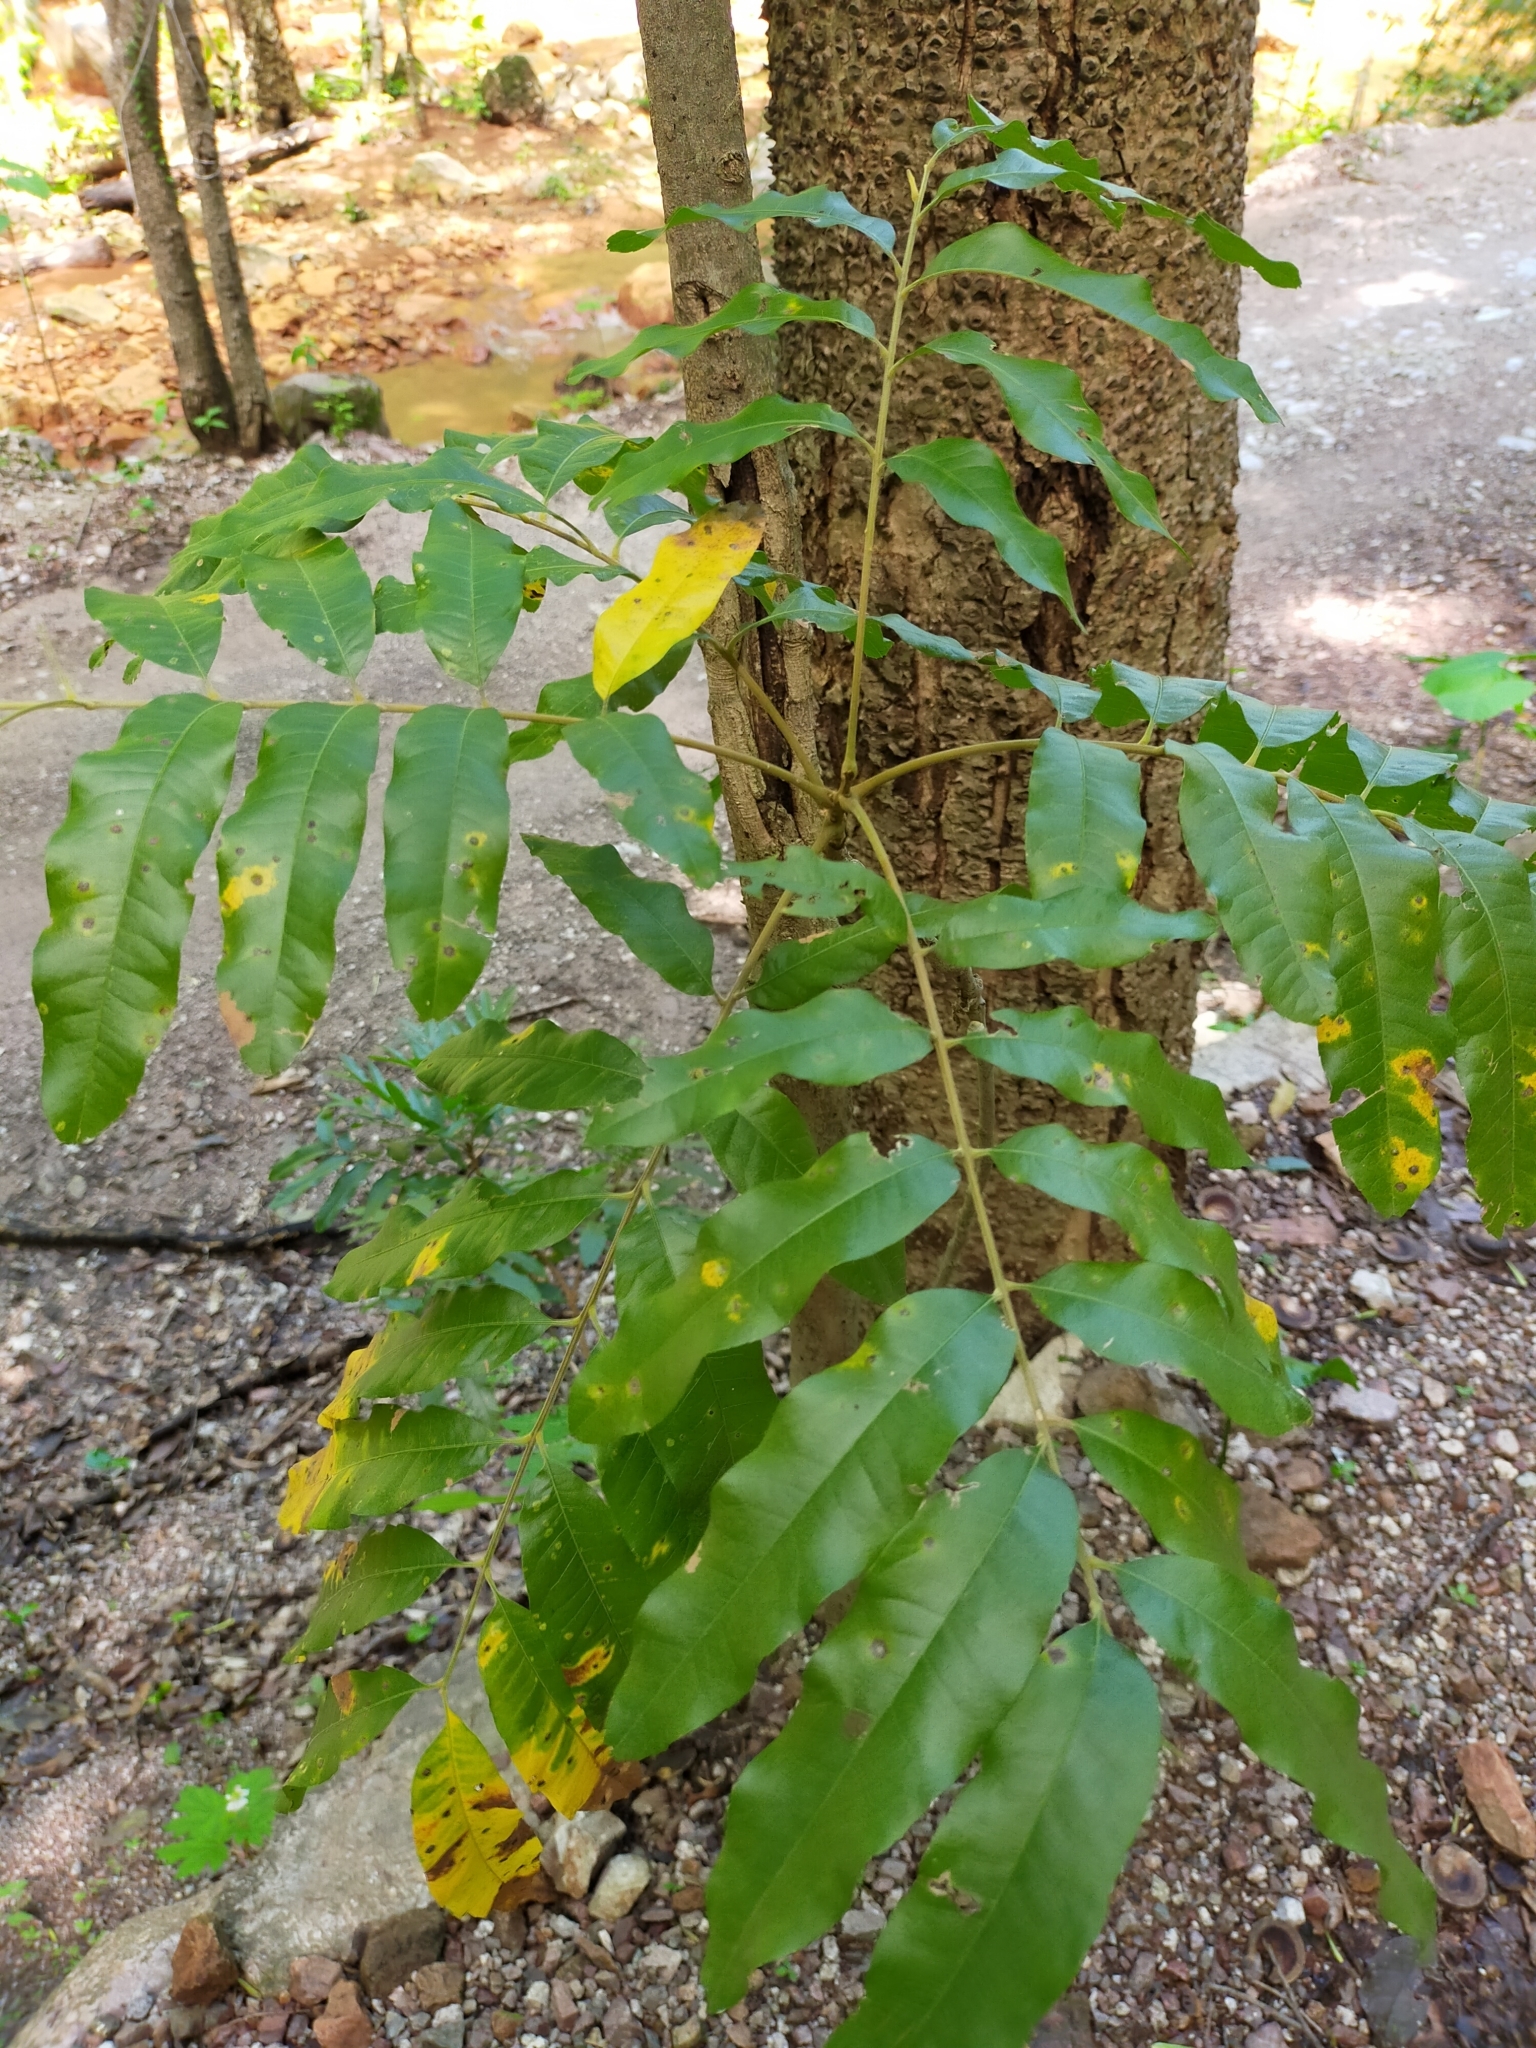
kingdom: Plantae
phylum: Tracheophyta
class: Magnoliopsida
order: Sapindales
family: Sapindaceae
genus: Thouinidium
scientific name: Thouinidium decandrum
